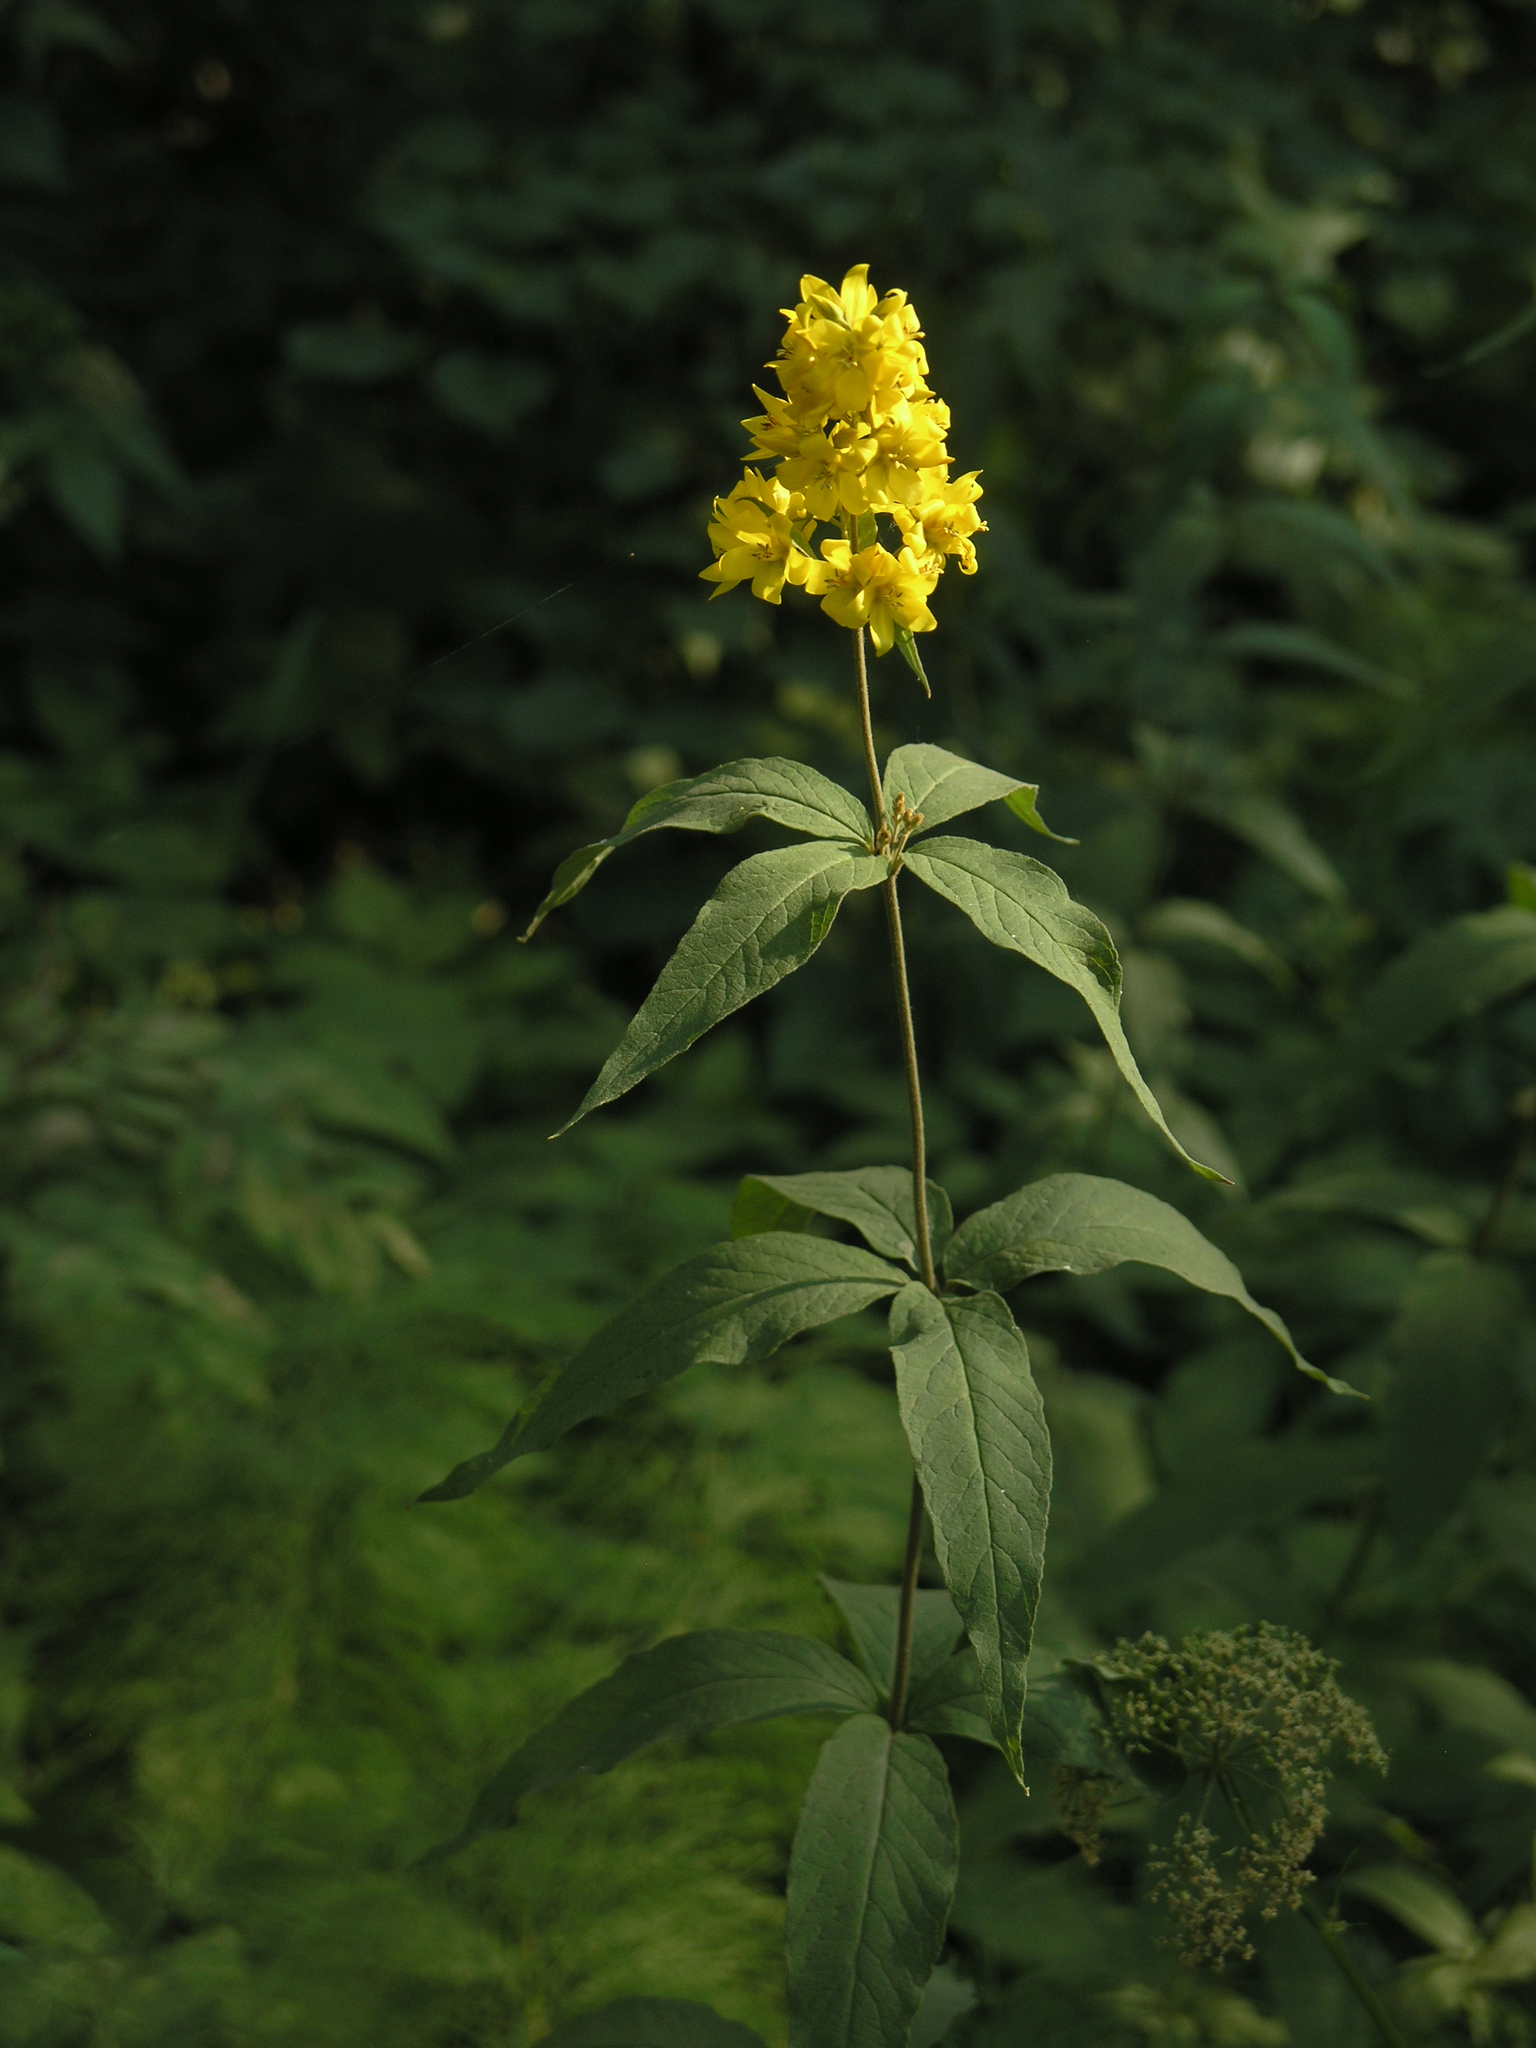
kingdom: Plantae
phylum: Tracheophyta
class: Magnoliopsida
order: Ericales
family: Primulaceae
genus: Lysimachia
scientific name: Lysimachia vulgaris
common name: Yellow loosestrife
